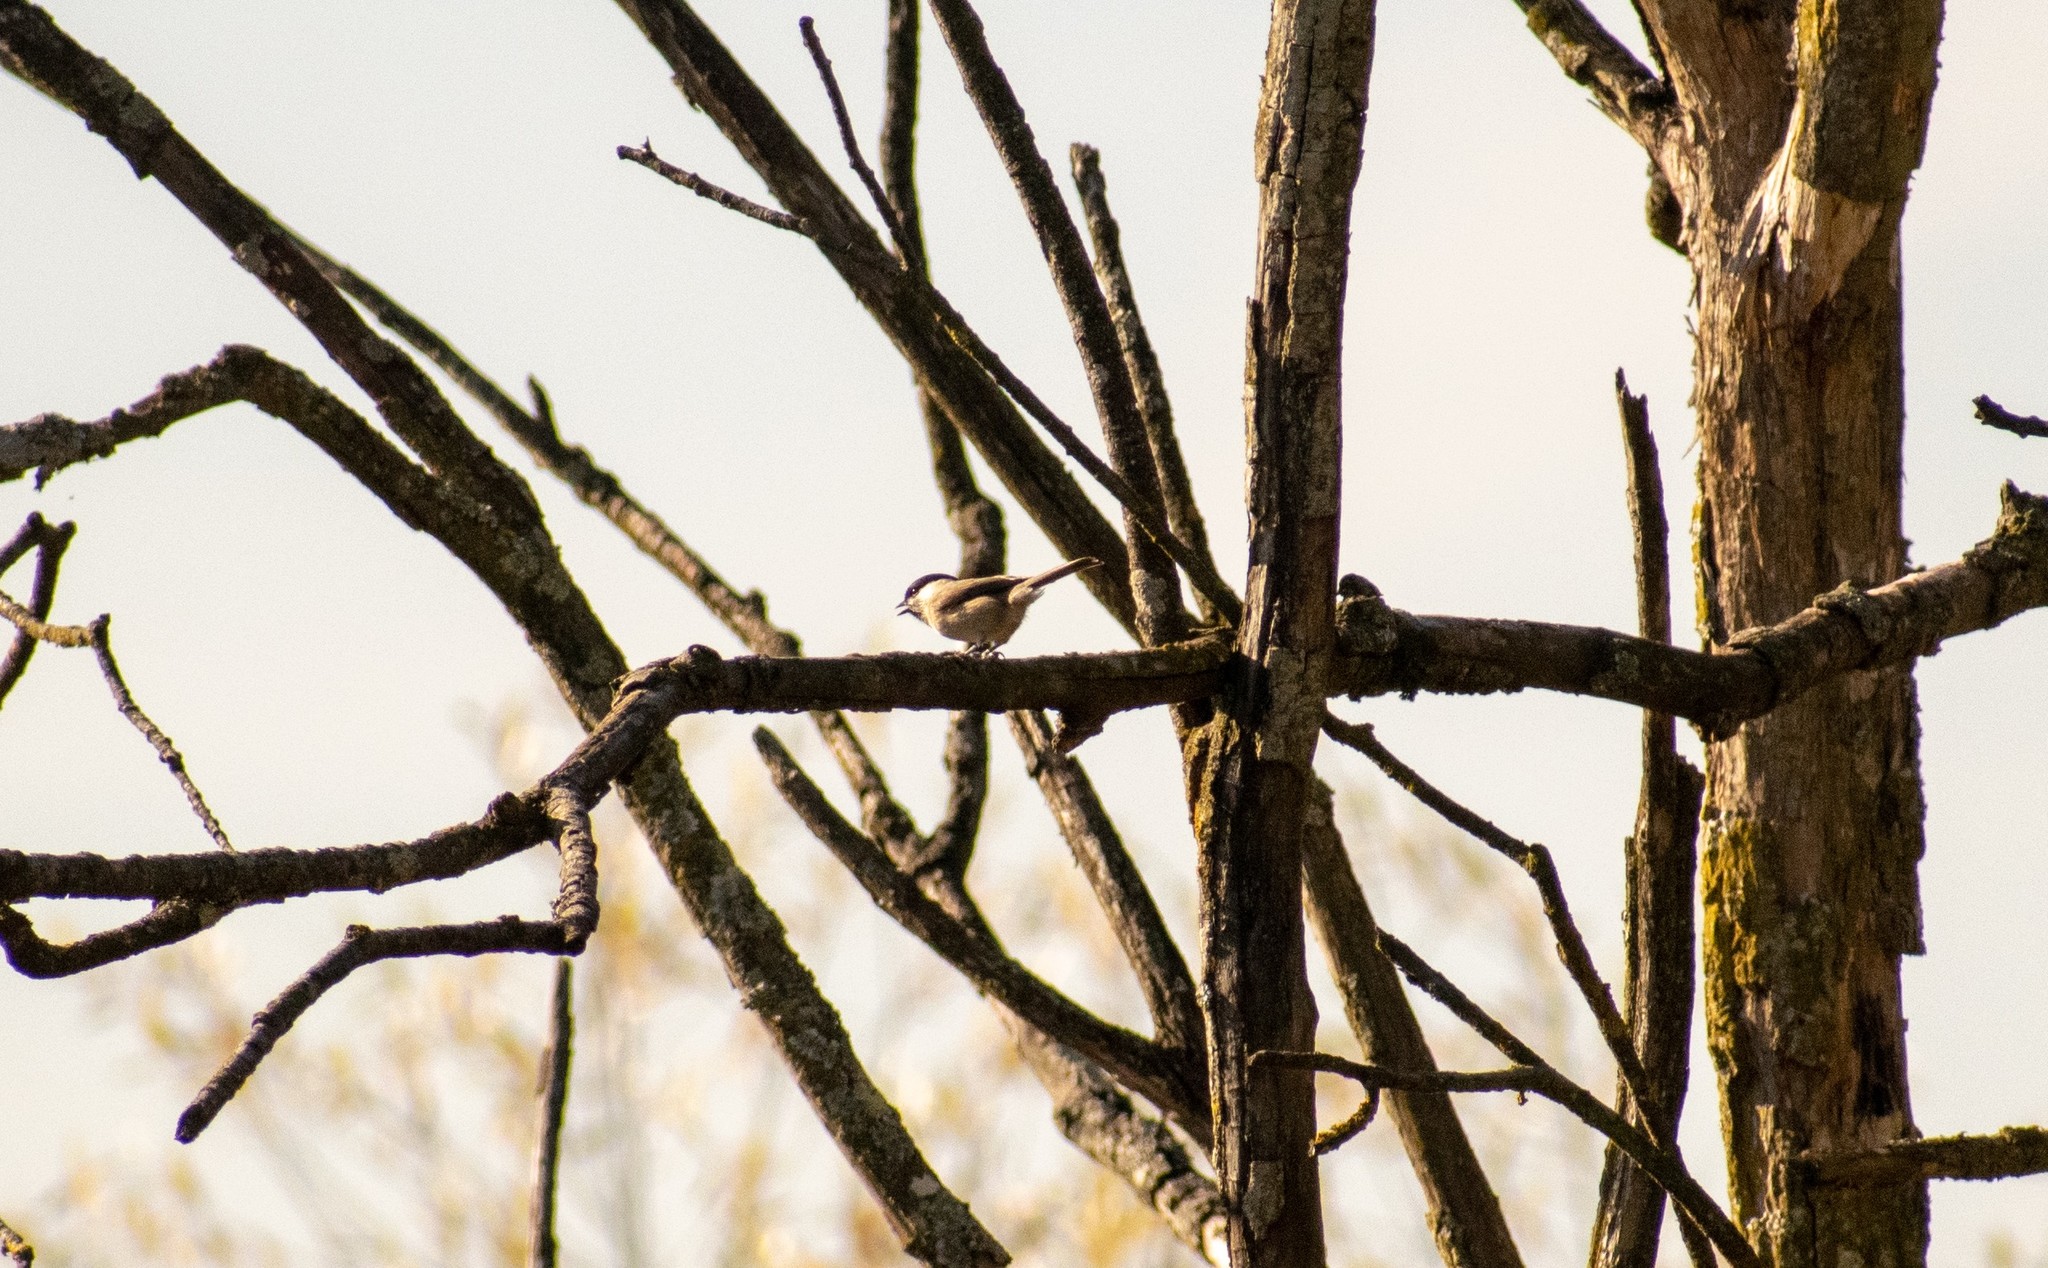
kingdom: Animalia
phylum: Chordata
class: Aves
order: Passeriformes
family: Paridae
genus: Poecile
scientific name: Poecile palustris
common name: Marsh tit
